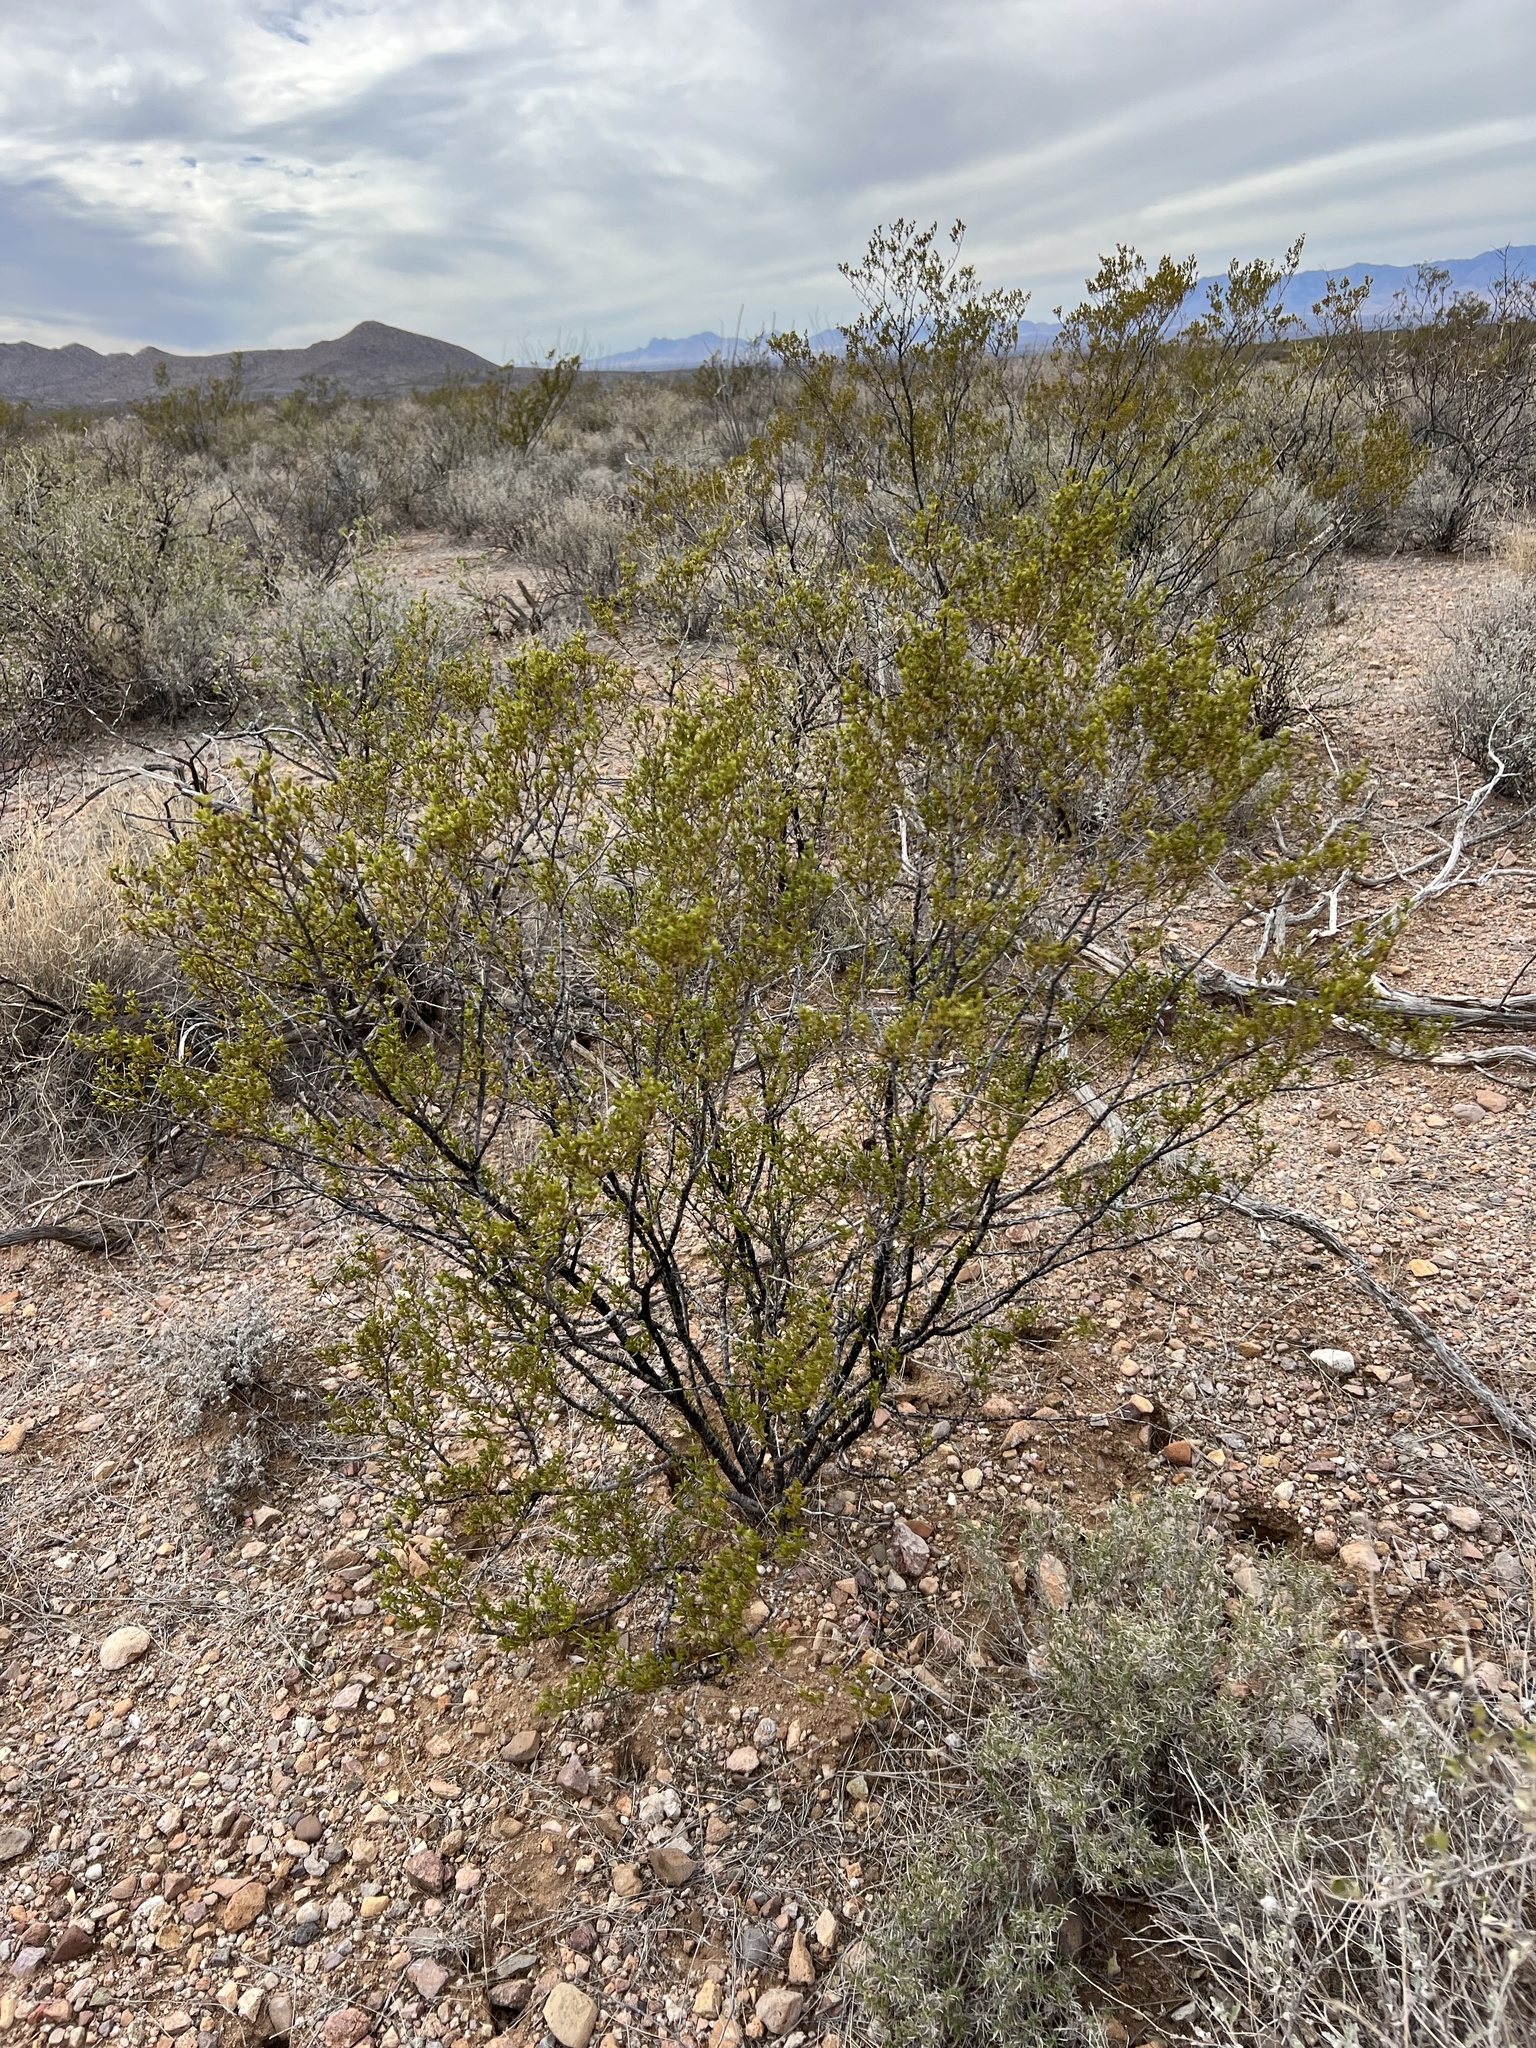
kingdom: Plantae
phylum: Tracheophyta
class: Magnoliopsida
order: Zygophyllales
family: Zygophyllaceae
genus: Larrea
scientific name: Larrea tridentata
